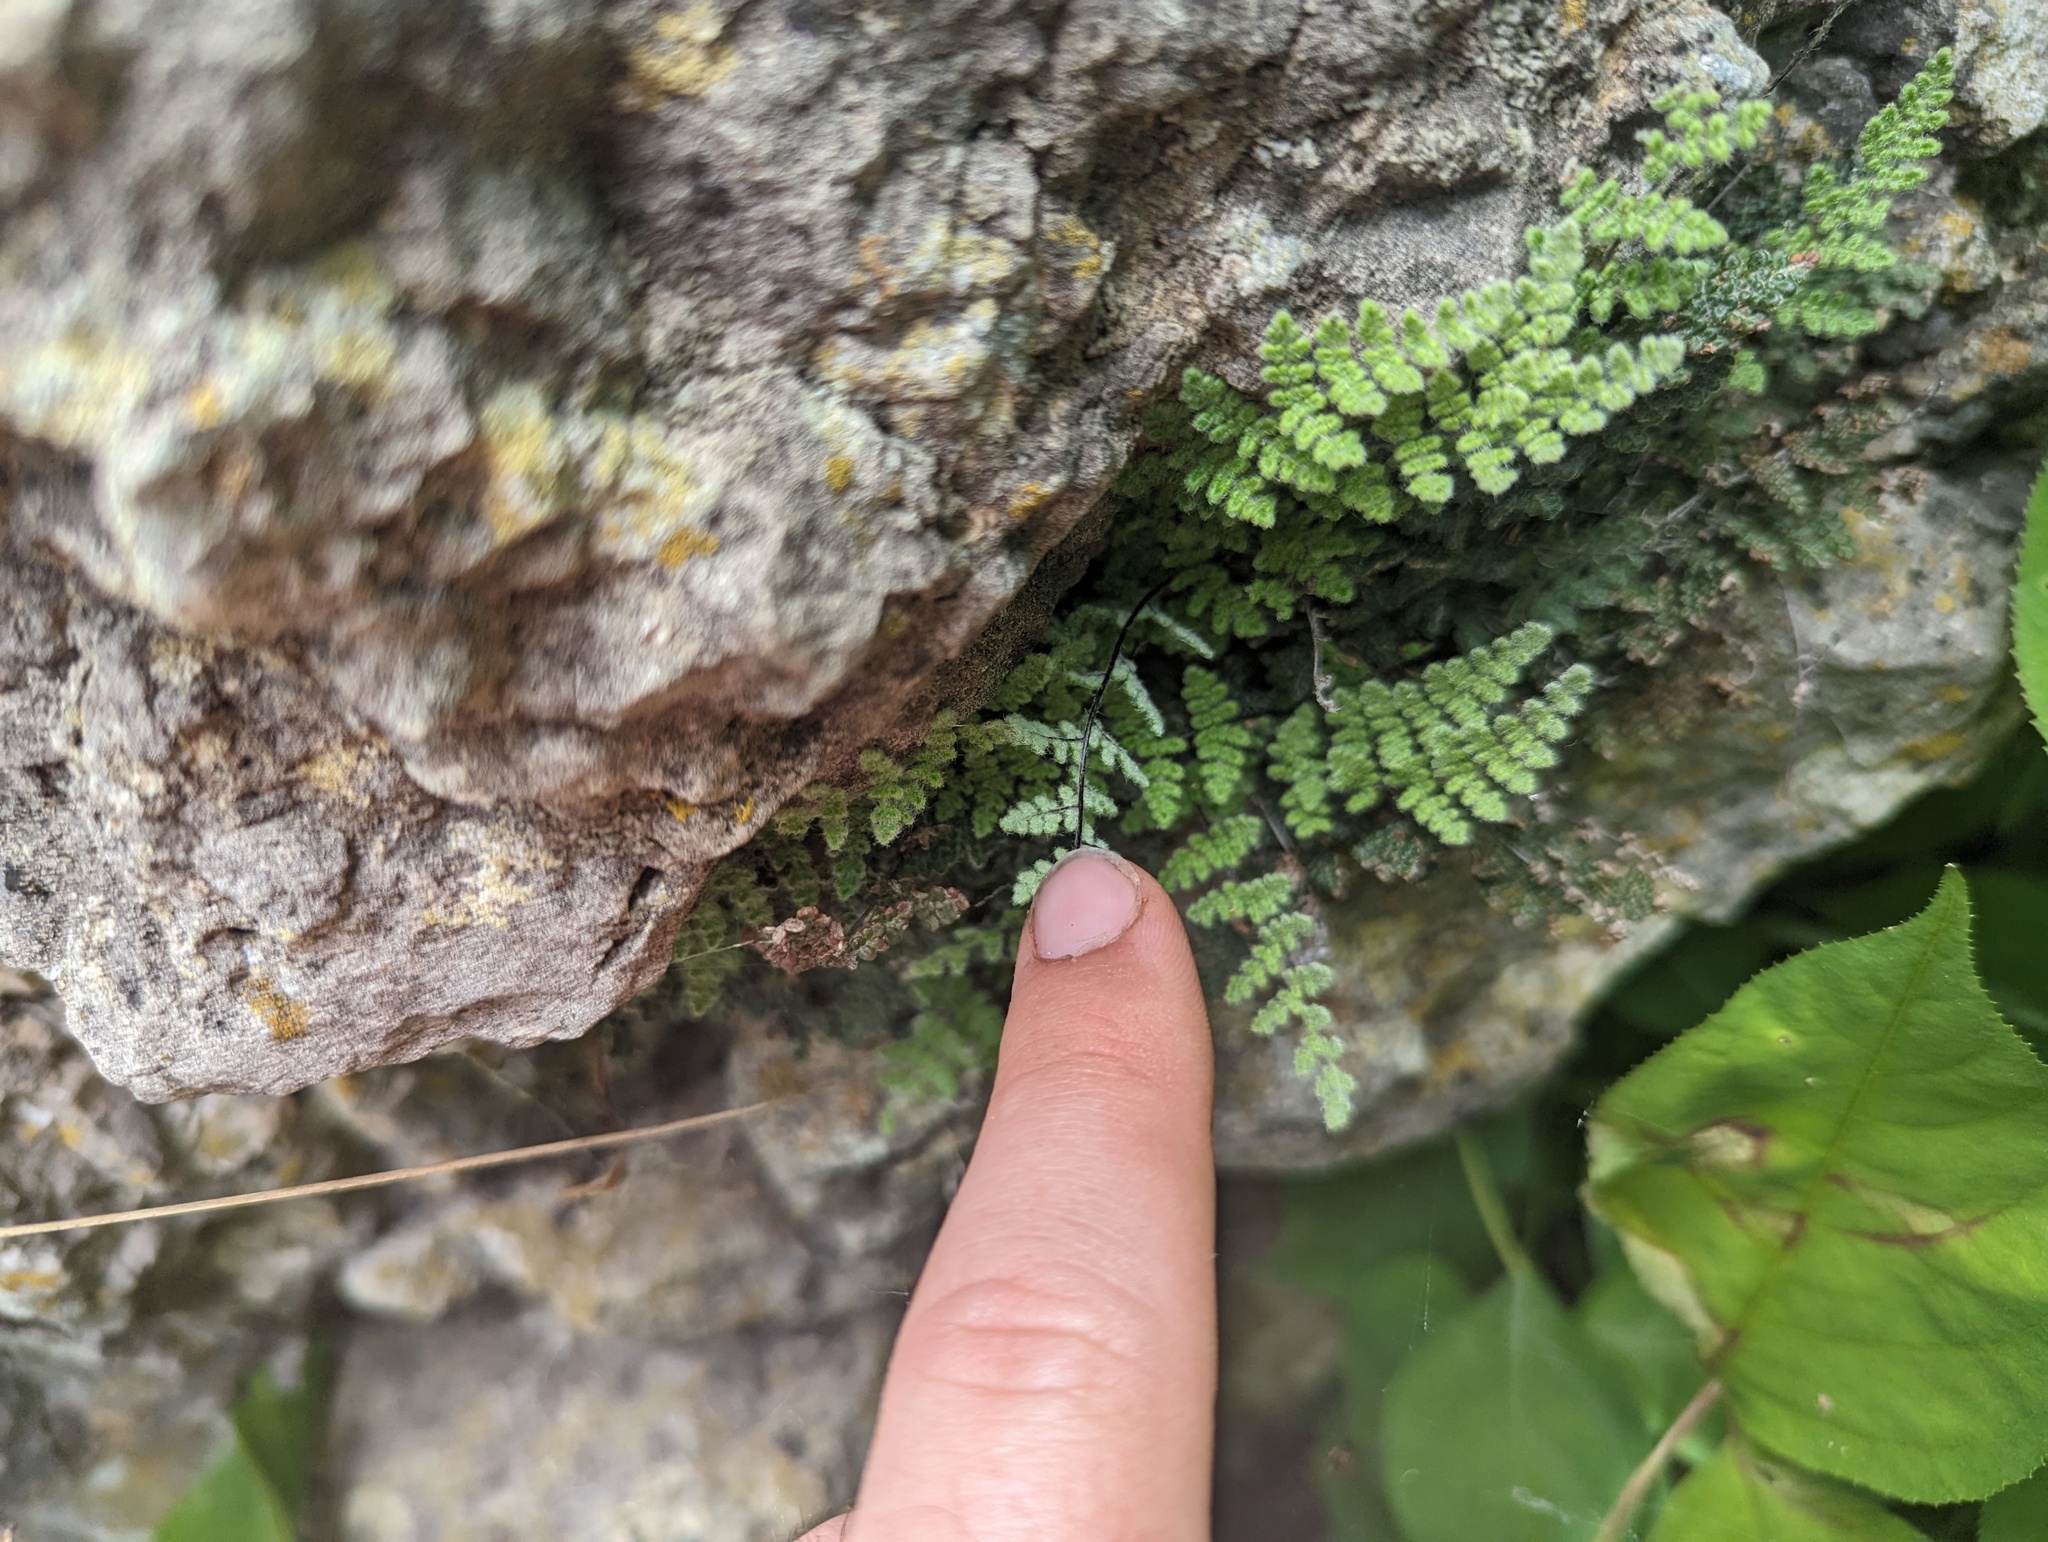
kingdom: Plantae
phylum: Tracheophyta
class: Polypodiopsida
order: Polypodiales
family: Pteridaceae
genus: Myriopteris
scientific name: Myriopteris gracilis
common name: Fee's lip fern
